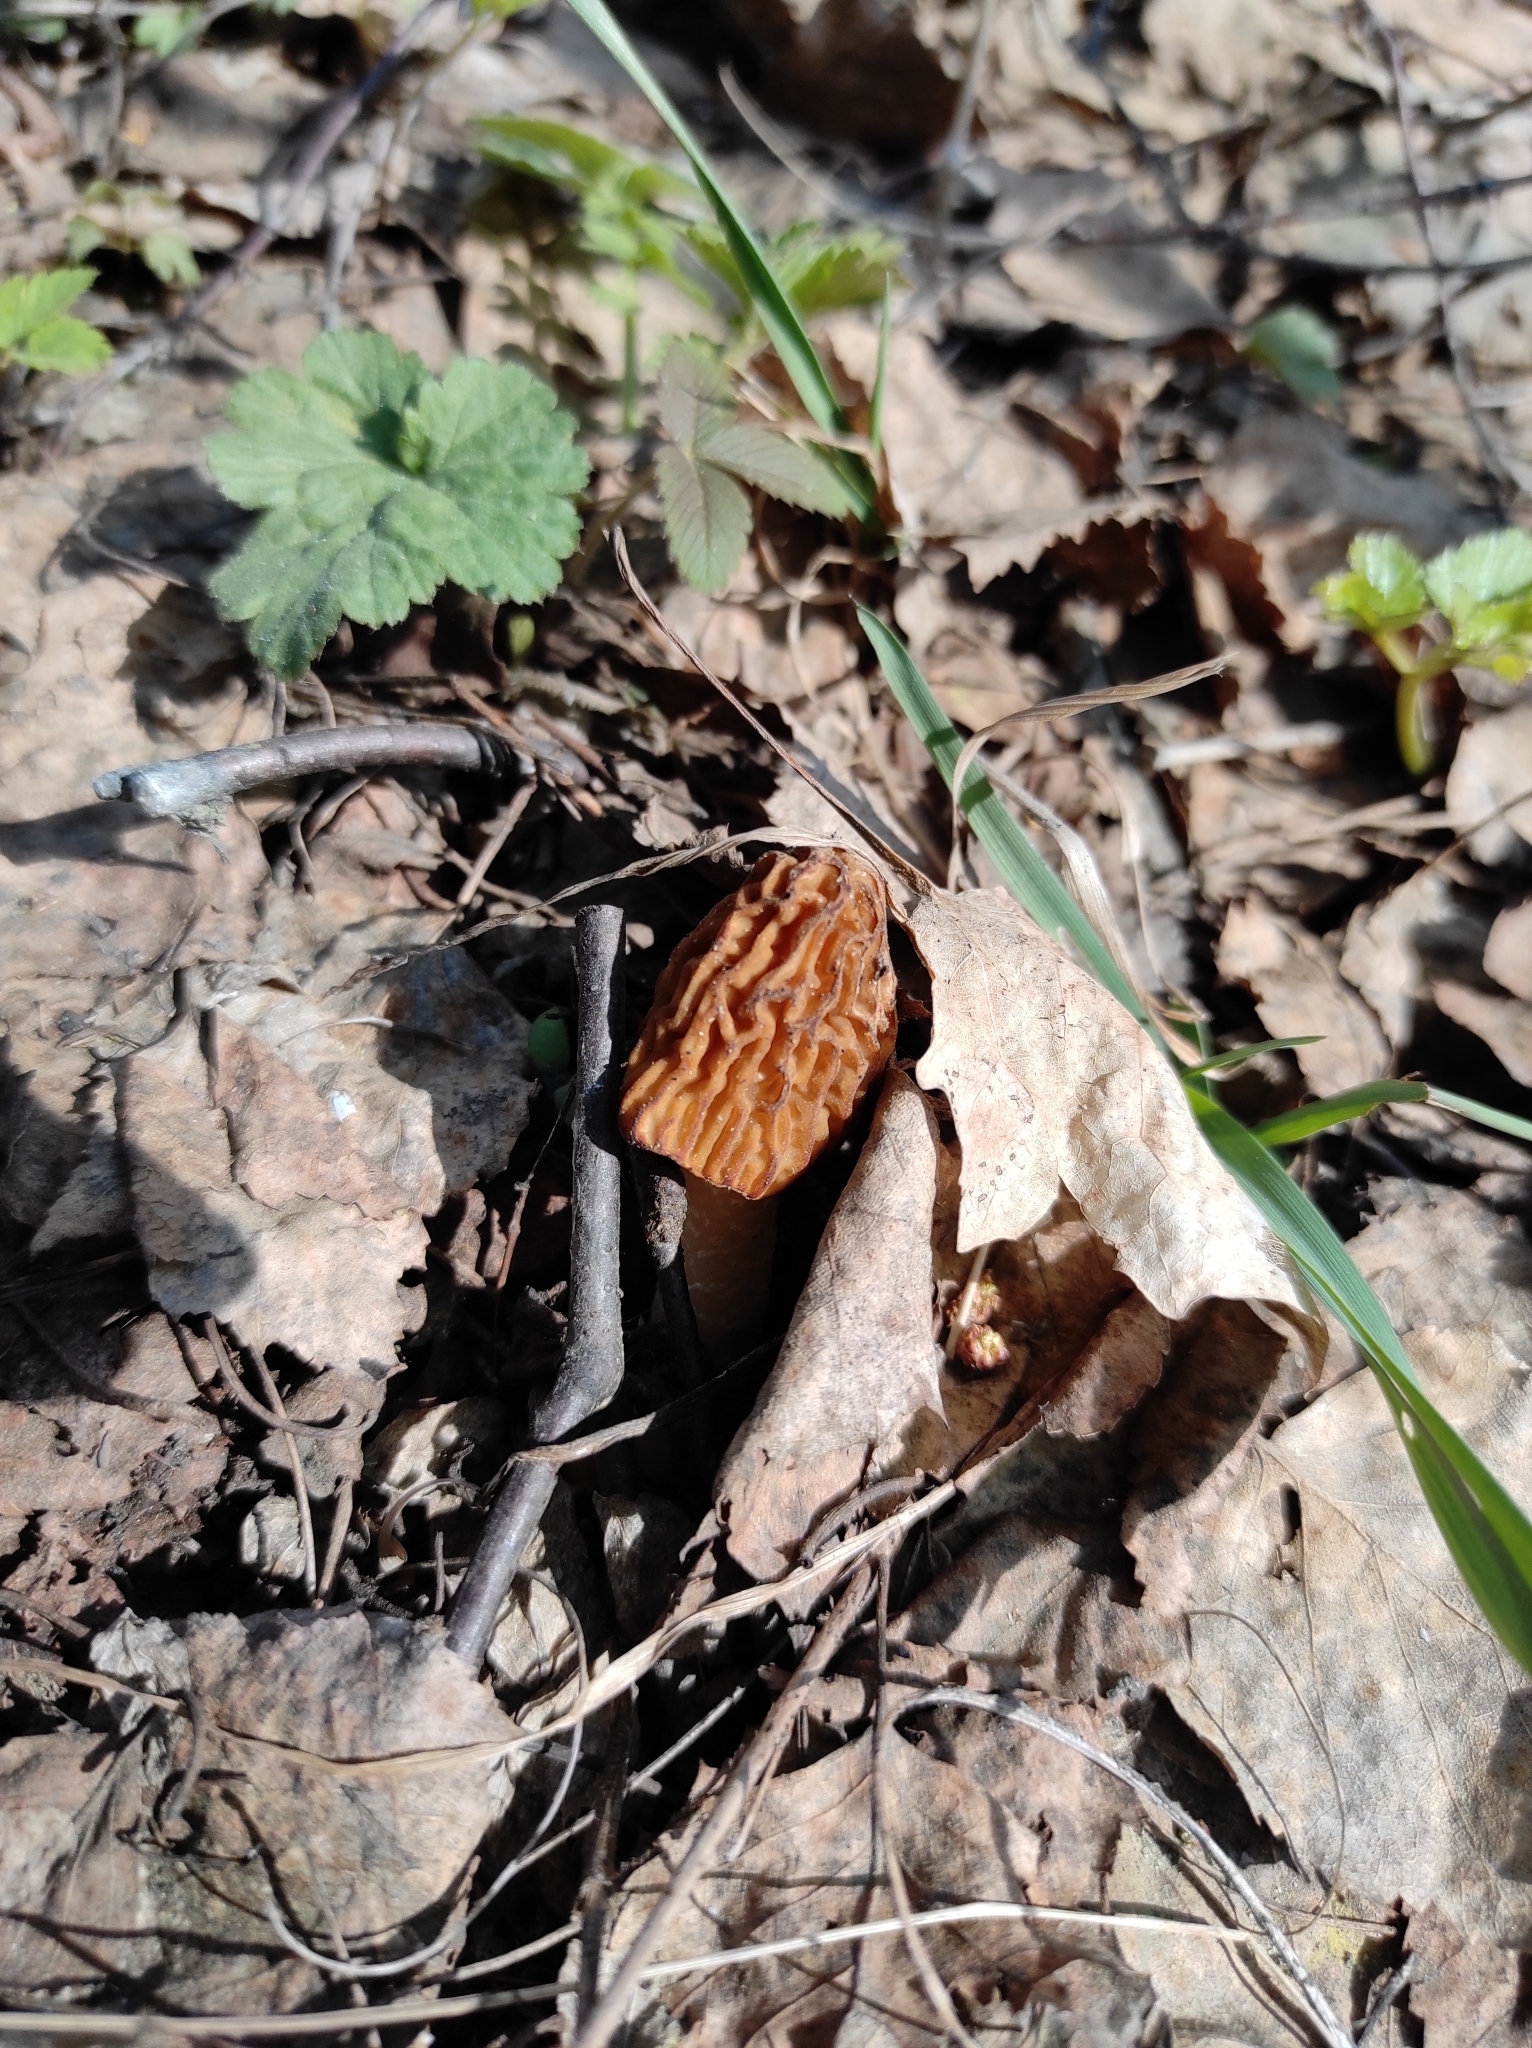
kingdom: Fungi
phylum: Ascomycota
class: Pezizomycetes
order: Pezizales
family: Morchellaceae
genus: Verpa
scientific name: Verpa bohemica
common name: Wrinkled thimble morel
